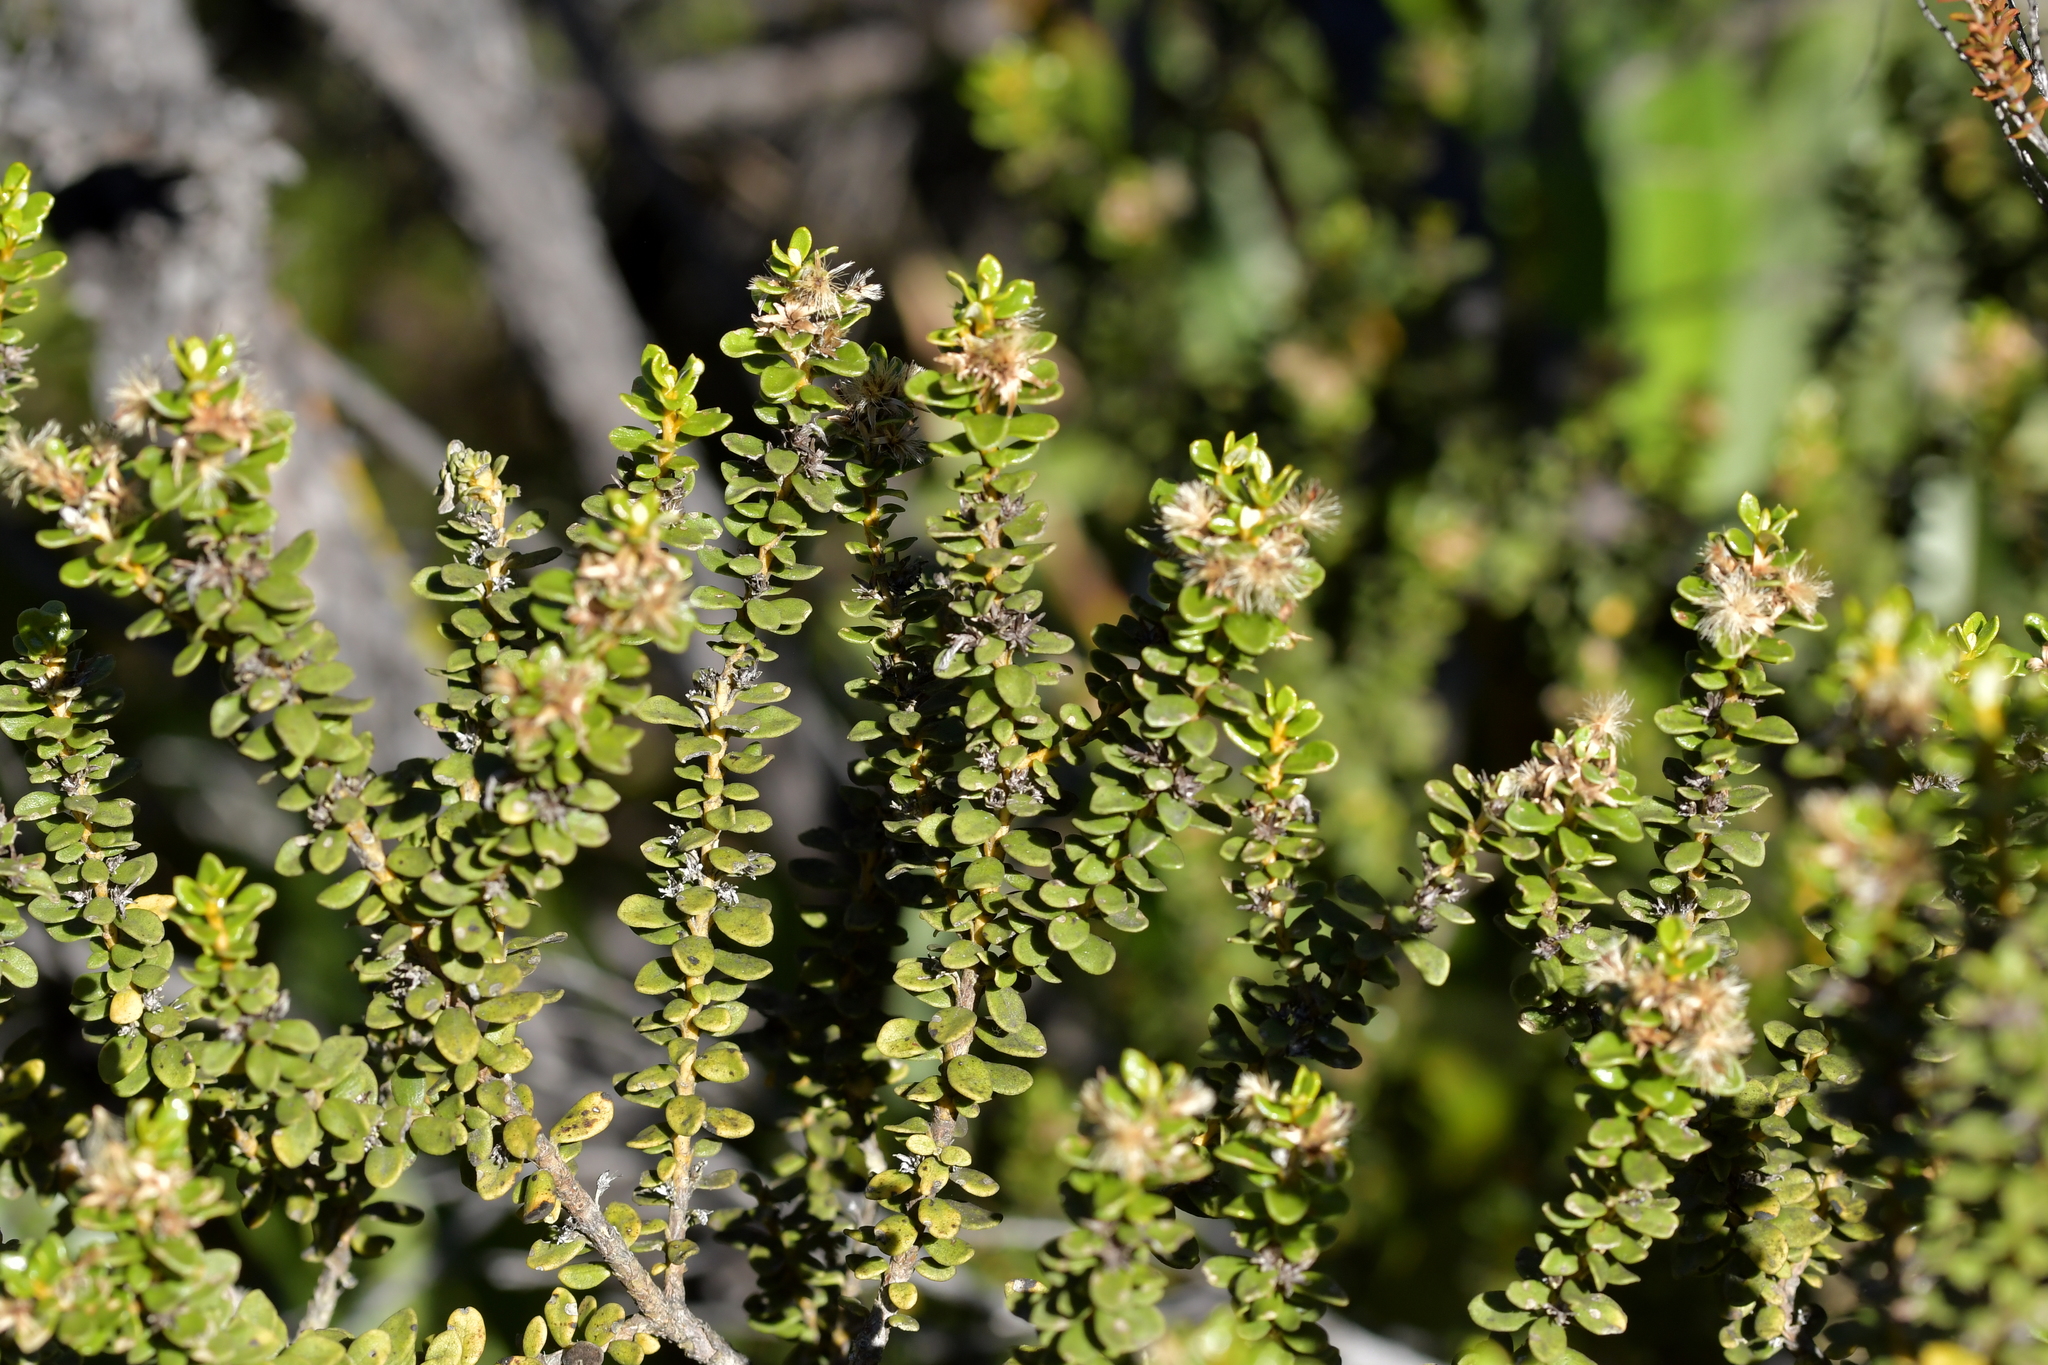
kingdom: Plantae
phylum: Tracheophyta
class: Magnoliopsida
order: Asterales
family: Asteraceae
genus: Olearia
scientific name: Olearia nummularifolia
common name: Sticky daisybush
